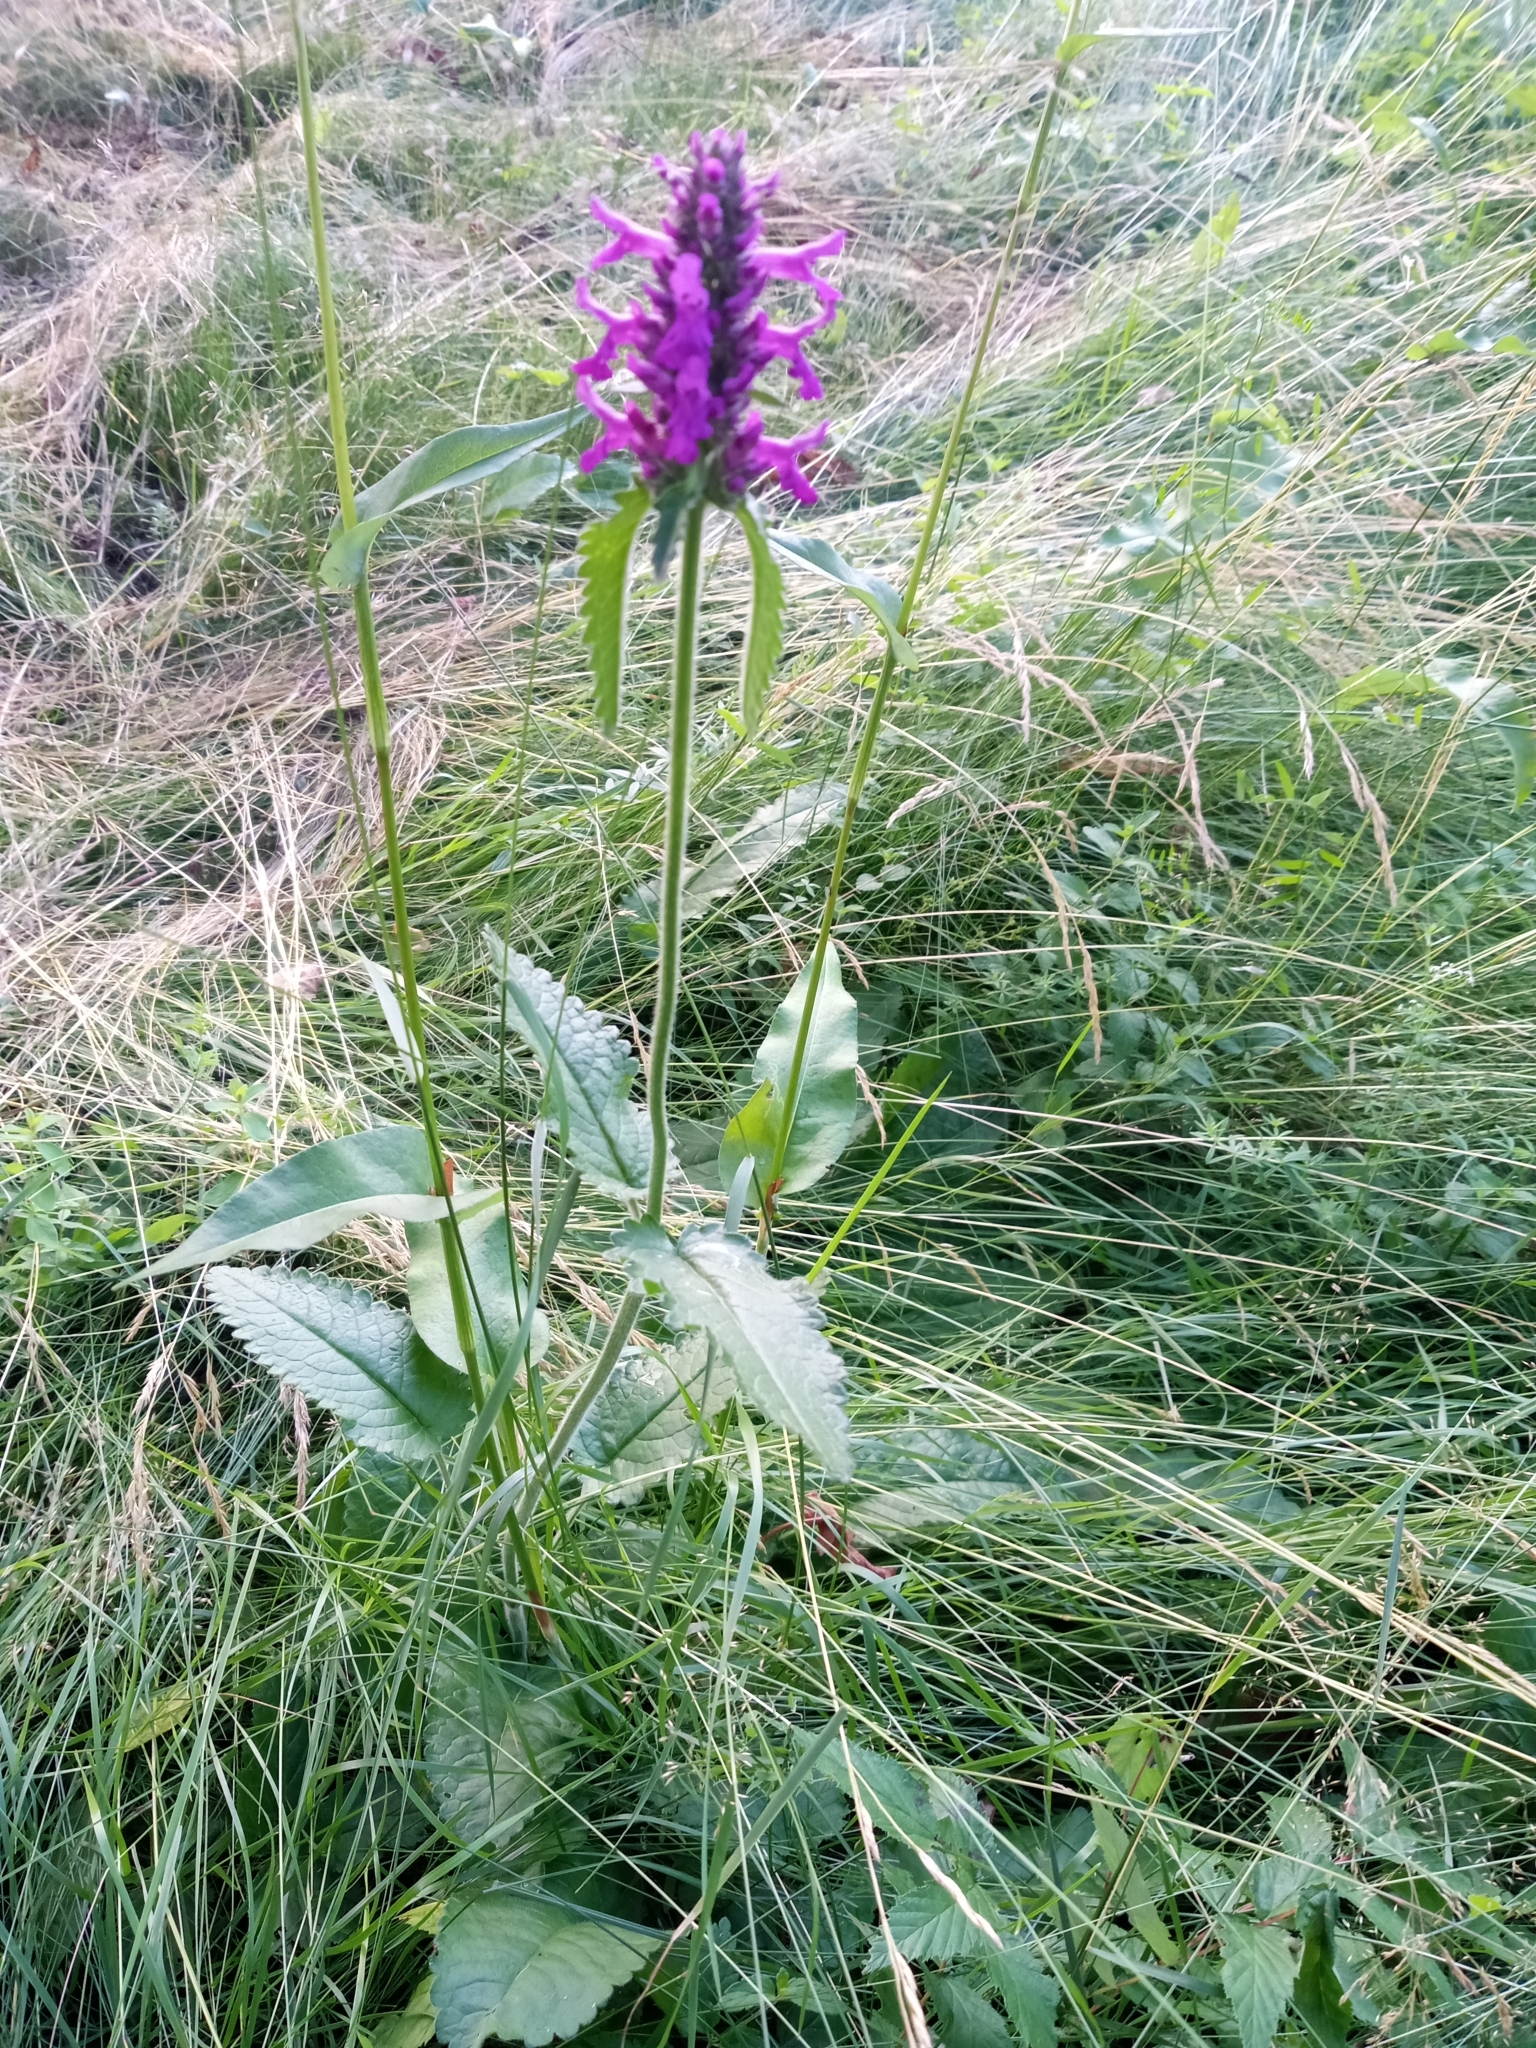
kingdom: Plantae
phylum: Tracheophyta
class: Magnoliopsida
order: Lamiales
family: Lamiaceae
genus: Betonica
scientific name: Betonica officinalis
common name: Bishop's-wort
